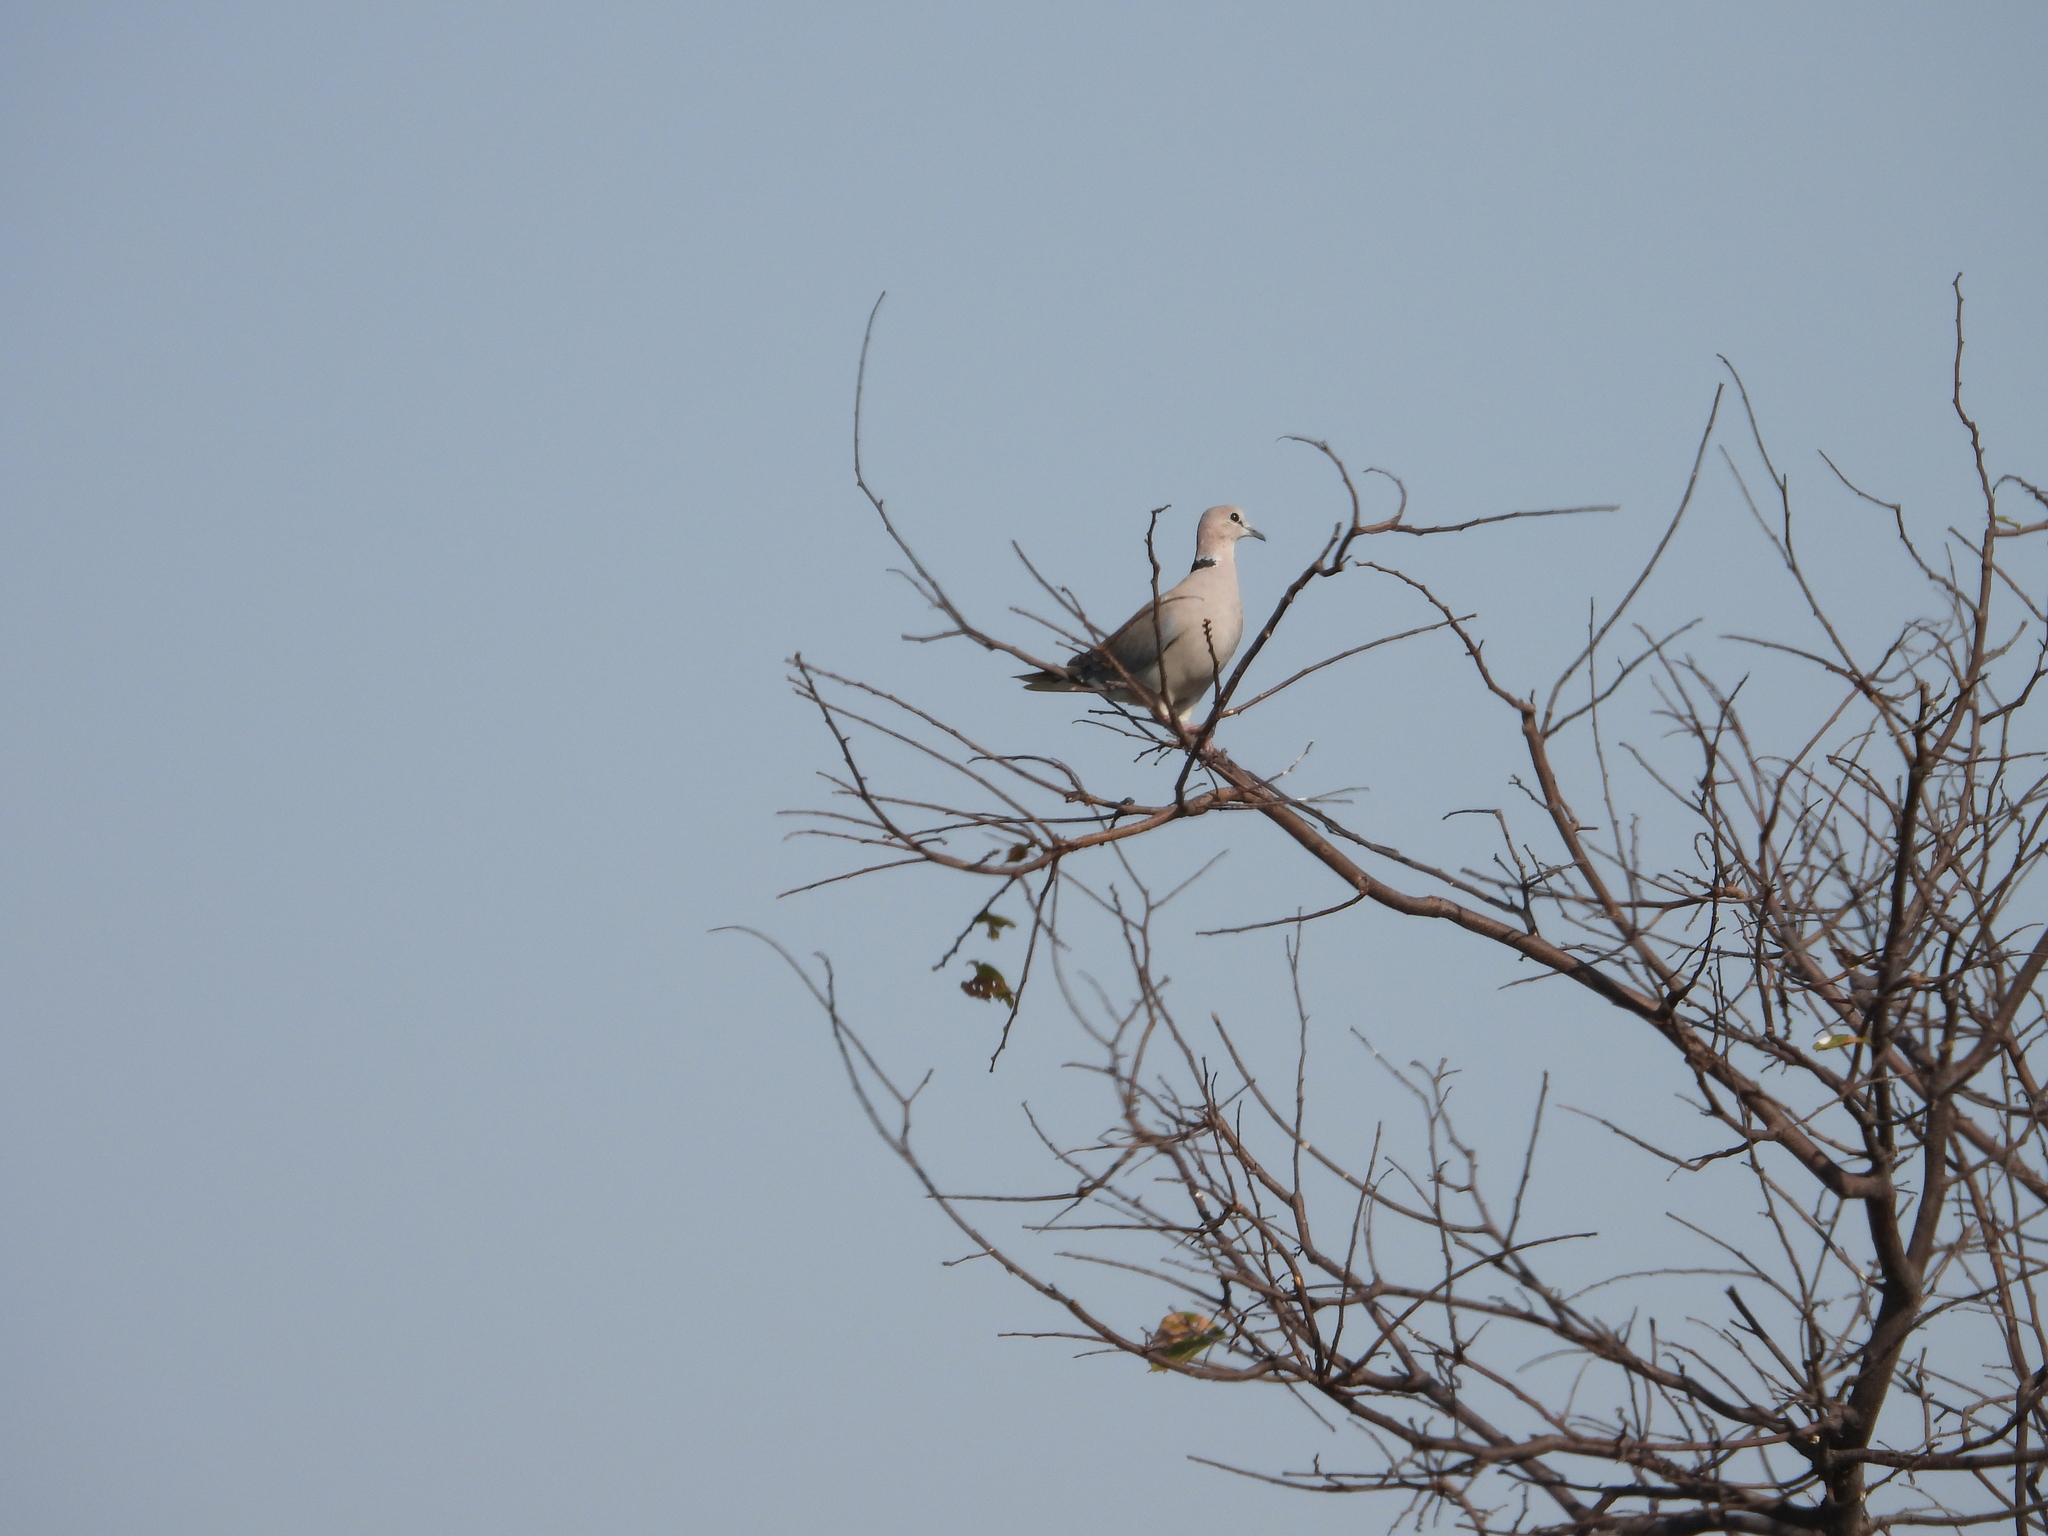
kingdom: Animalia
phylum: Chordata
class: Aves
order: Columbiformes
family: Columbidae
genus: Streptopelia
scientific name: Streptopelia capicola
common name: Ring-necked dove
